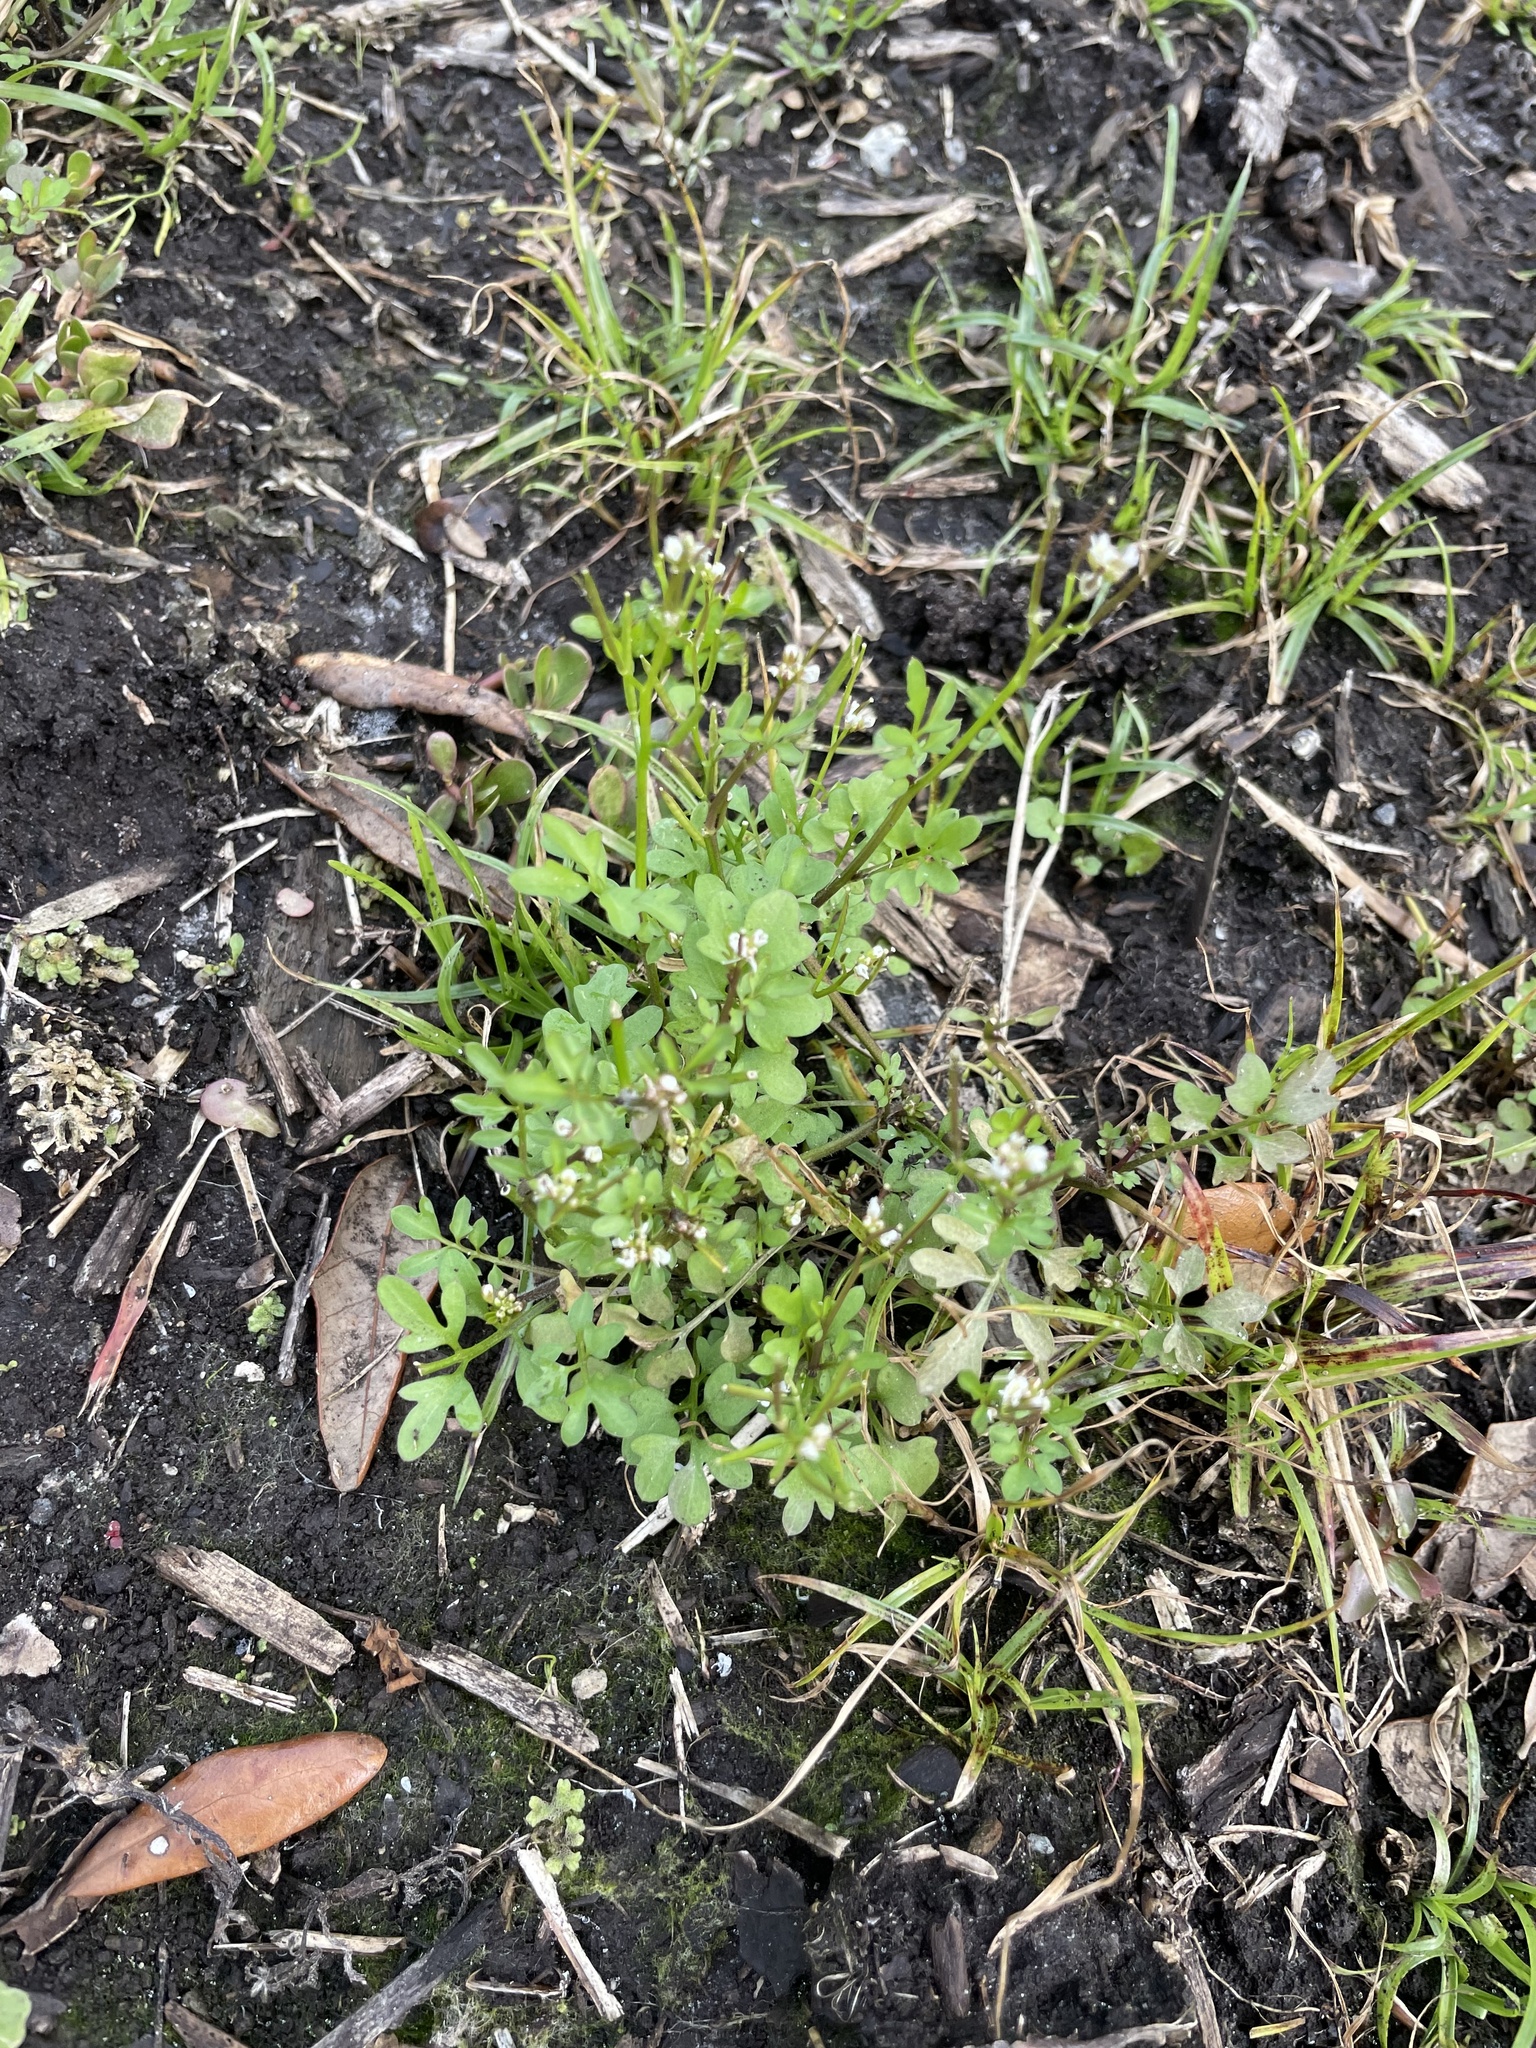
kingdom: Plantae
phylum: Tracheophyta
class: Magnoliopsida
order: Brassicales
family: Brassicaceae
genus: Cardamine
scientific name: Cardamine occulta
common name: Asian wavy bittercress
